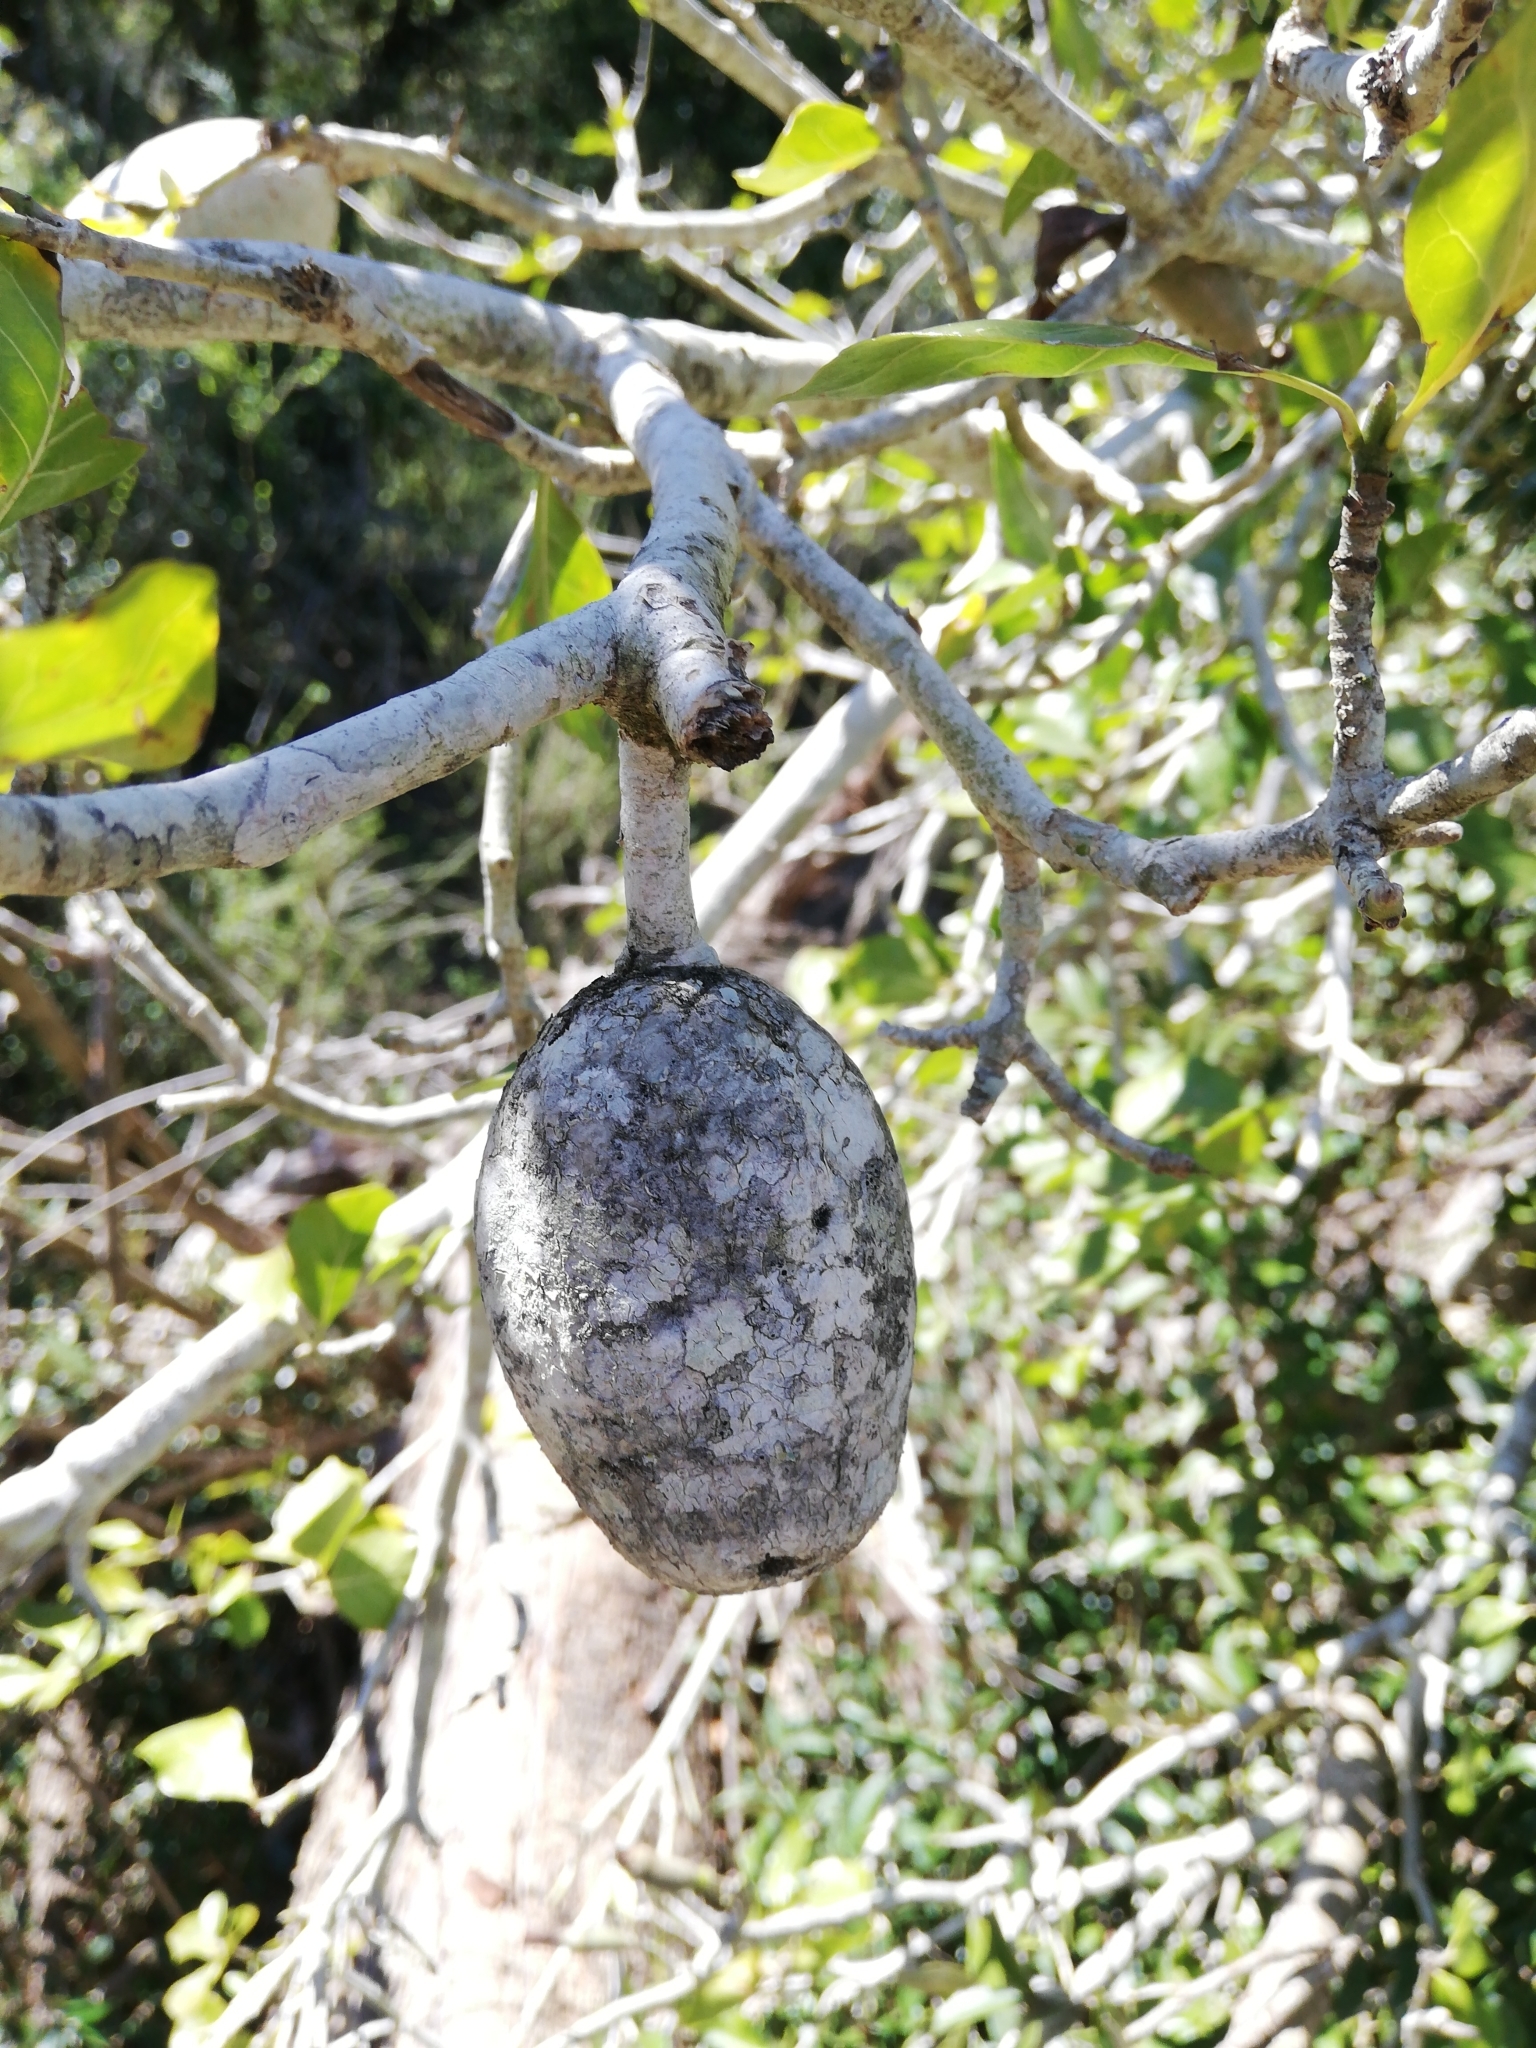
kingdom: Plantae
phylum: Tracheophyta
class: Magnoliopsida
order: Gentianales
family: Rubiaceae
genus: Gardenia
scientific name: Gardenia thunbergia
